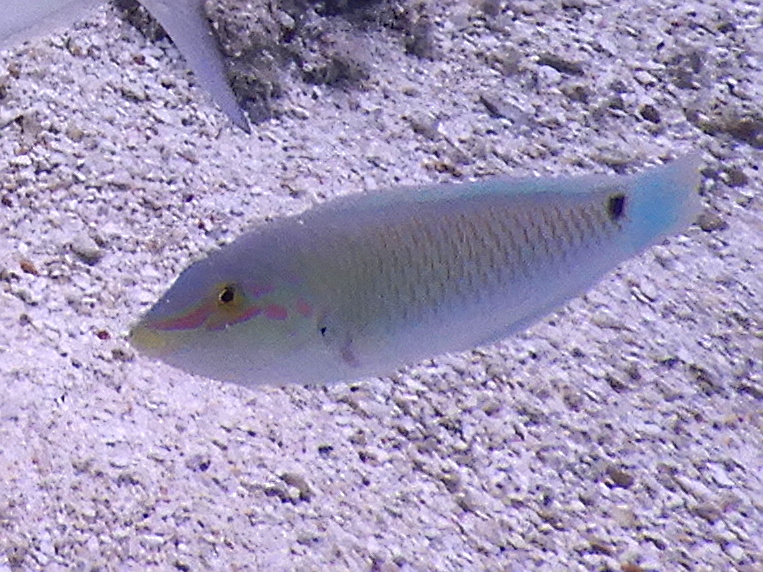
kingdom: Animalia
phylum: Chordata
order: Perciformes
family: Labridae
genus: Halichoeres
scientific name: Halichoeres trimaculatus
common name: Three-spot wrasse
